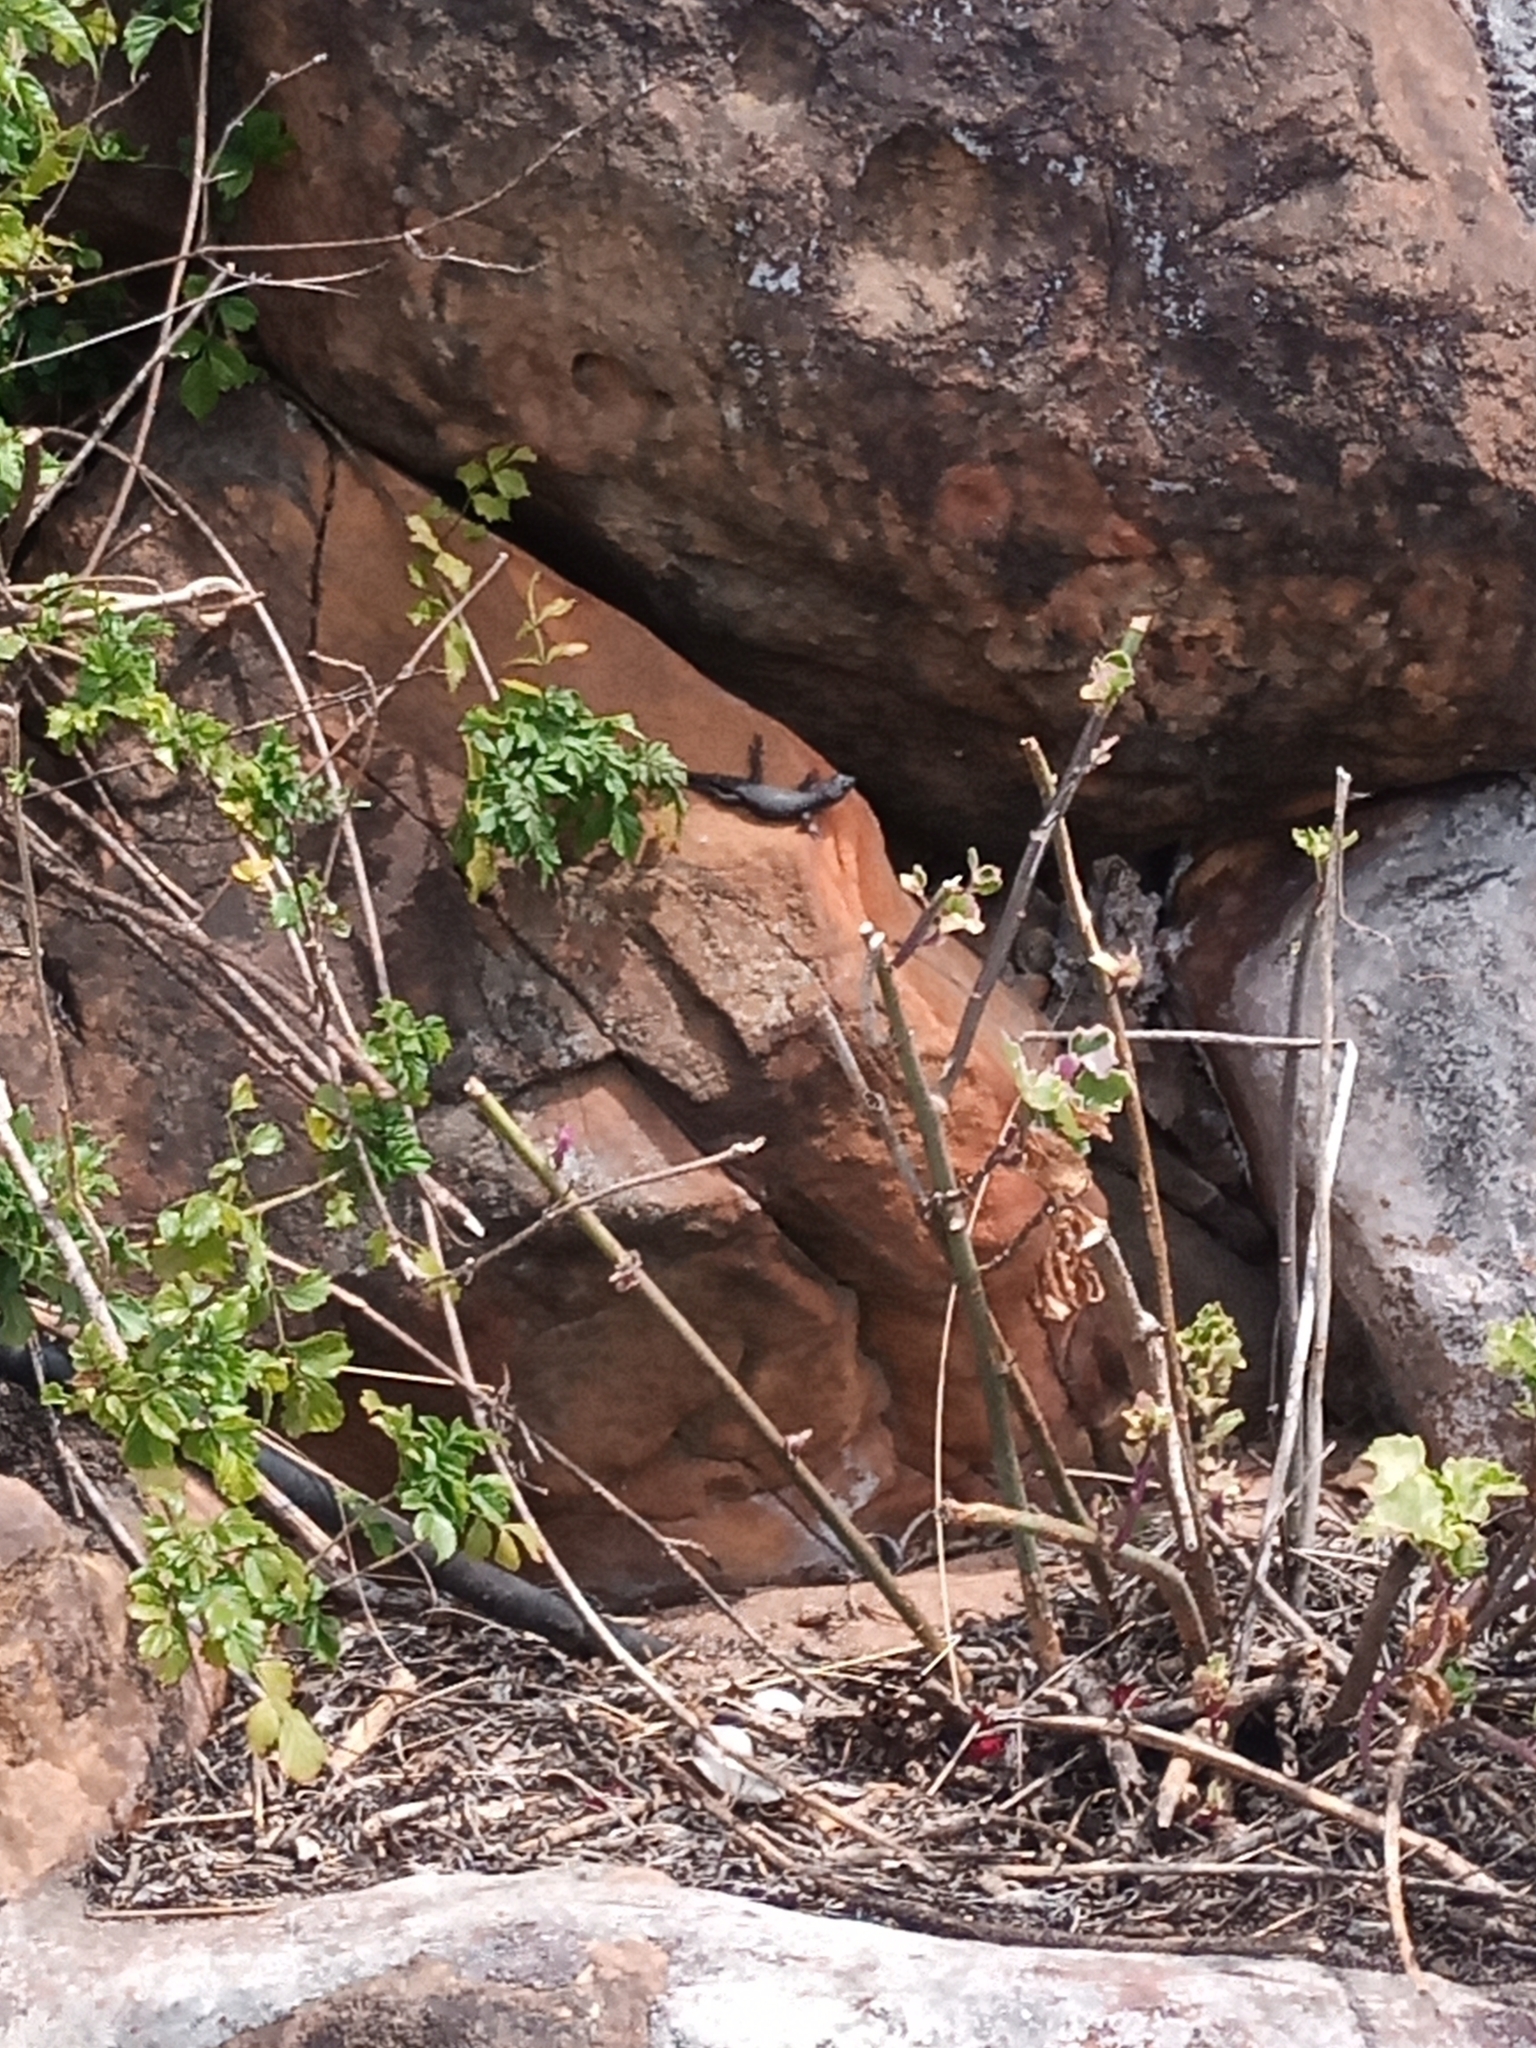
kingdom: Animalia
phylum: Chordata
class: Squamata
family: Cordylidae
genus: Cordylus
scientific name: Cordylus niger
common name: Black girdled lizard
